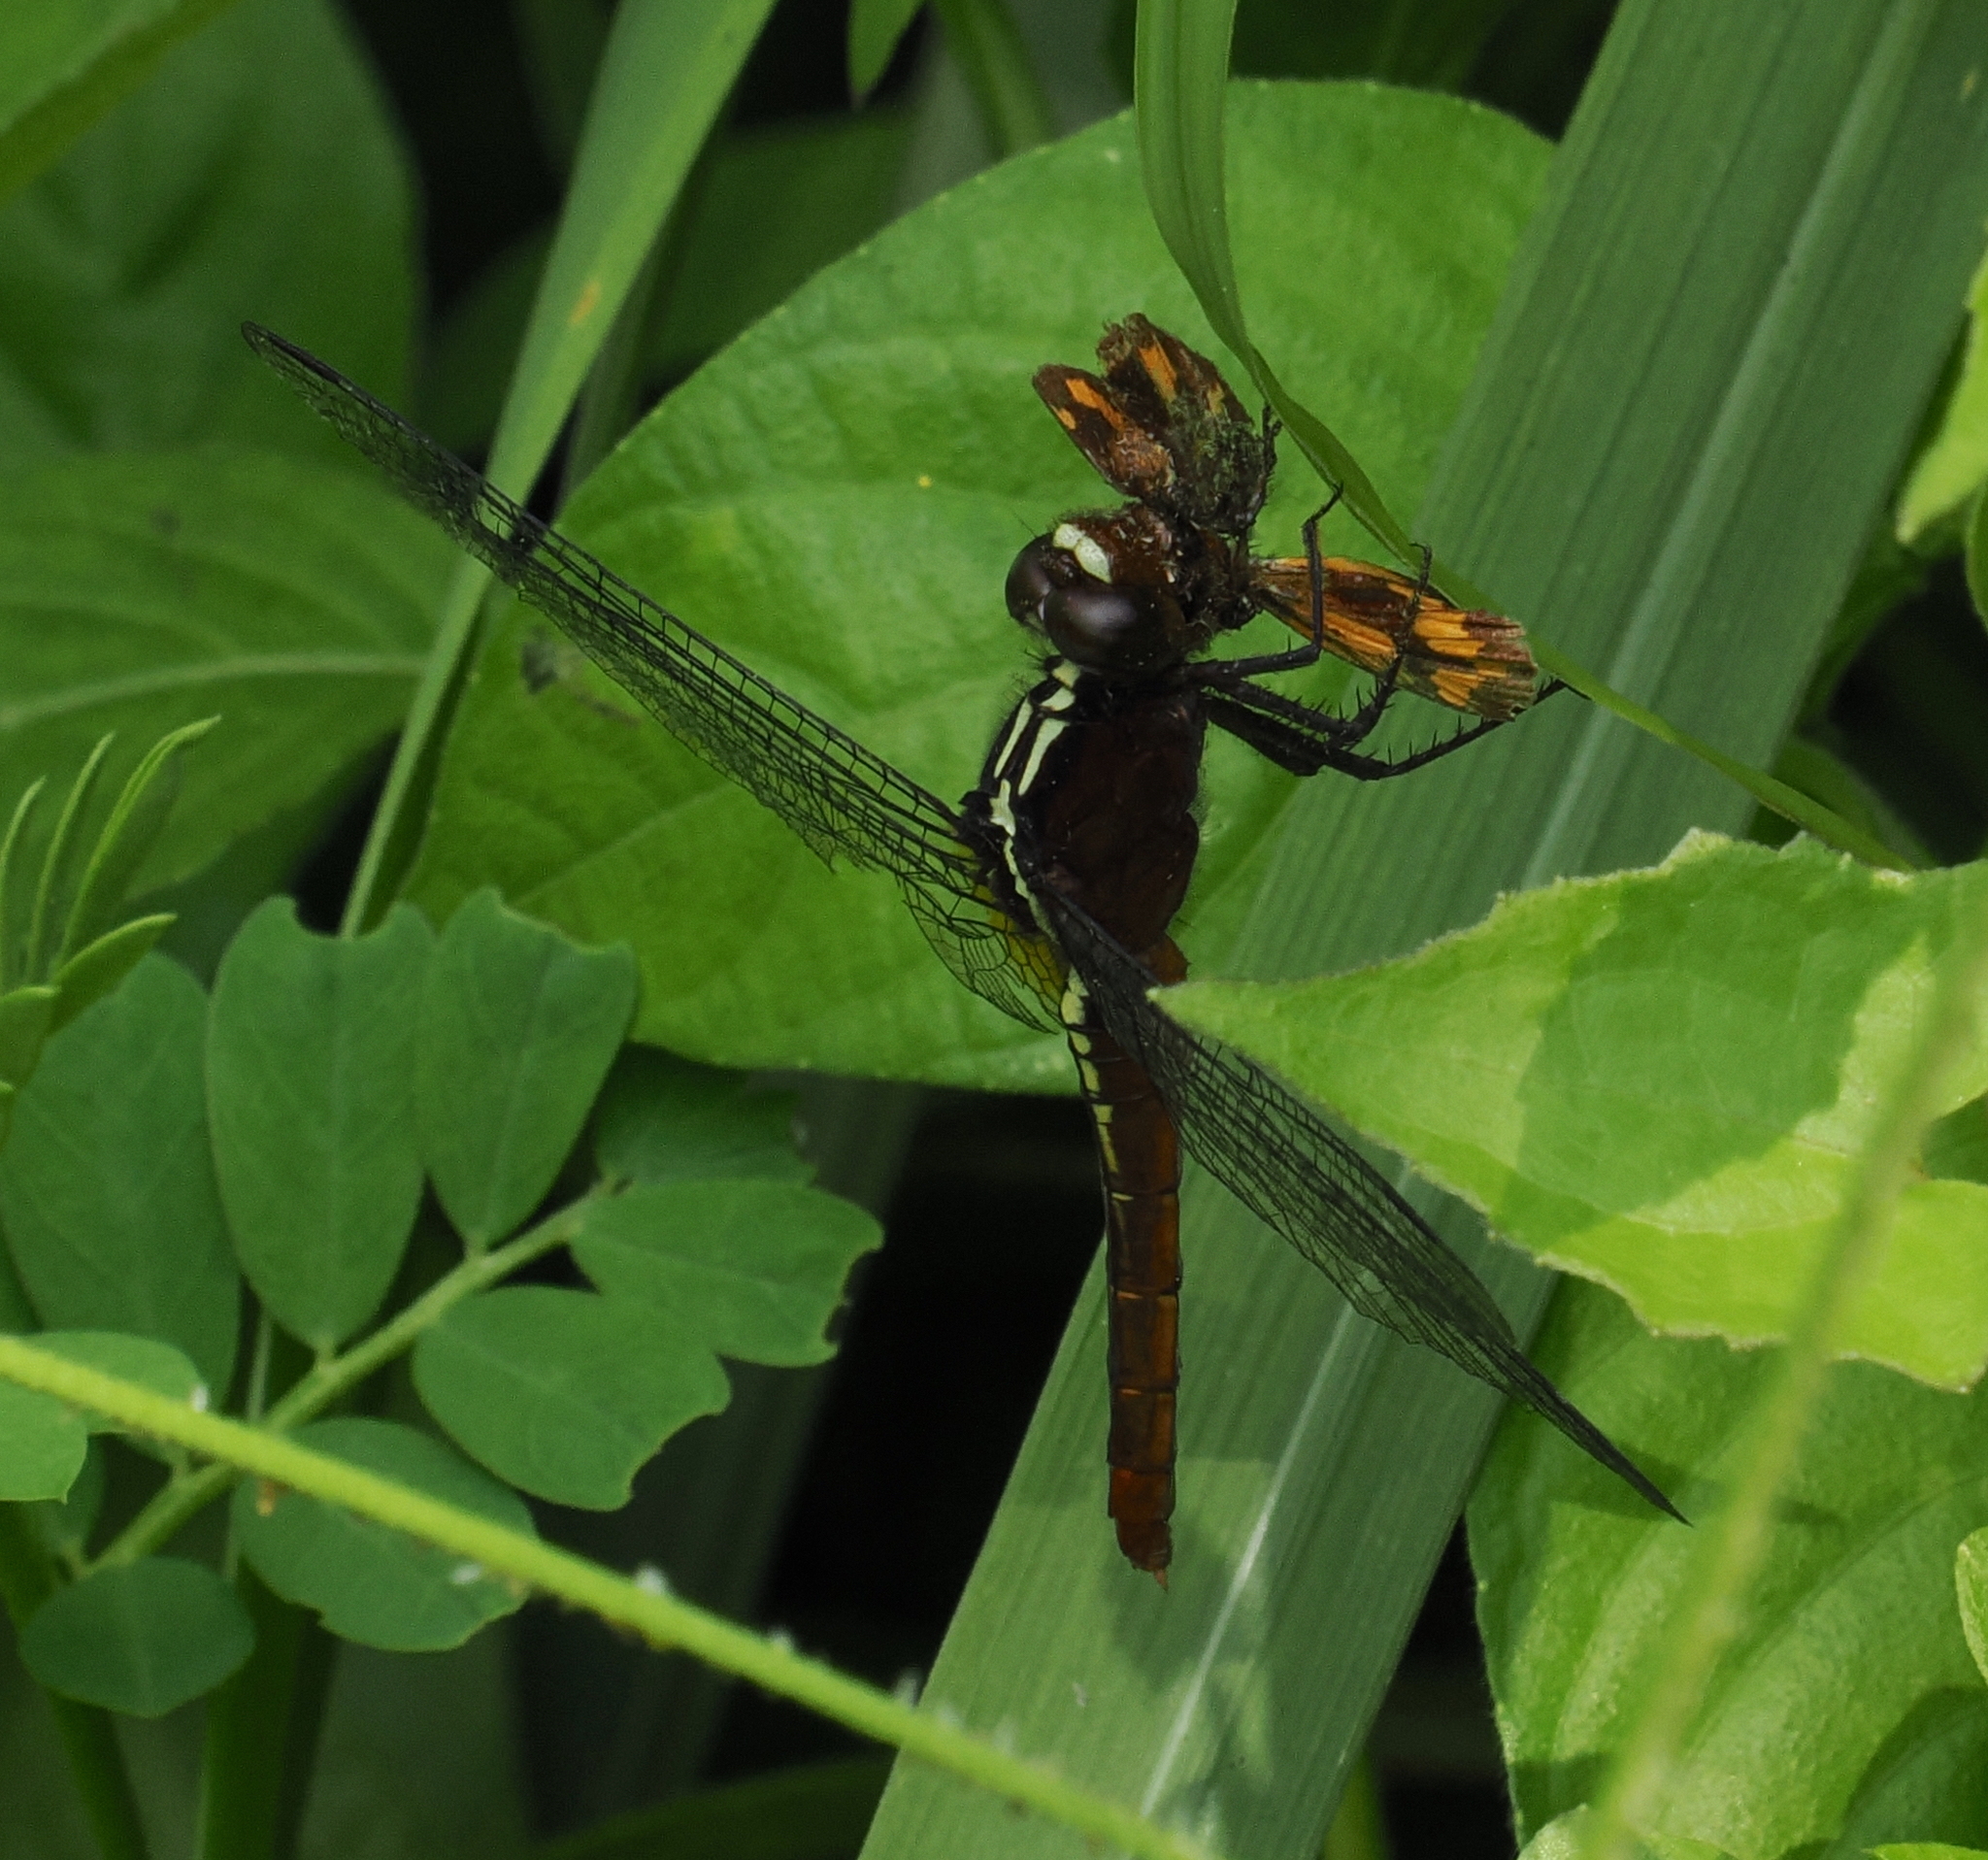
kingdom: Animalia
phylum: Arthropoda
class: Insecta
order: Odonata
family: Libellulidae
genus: Rhodothemis
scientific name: Rhodothemis rufa
